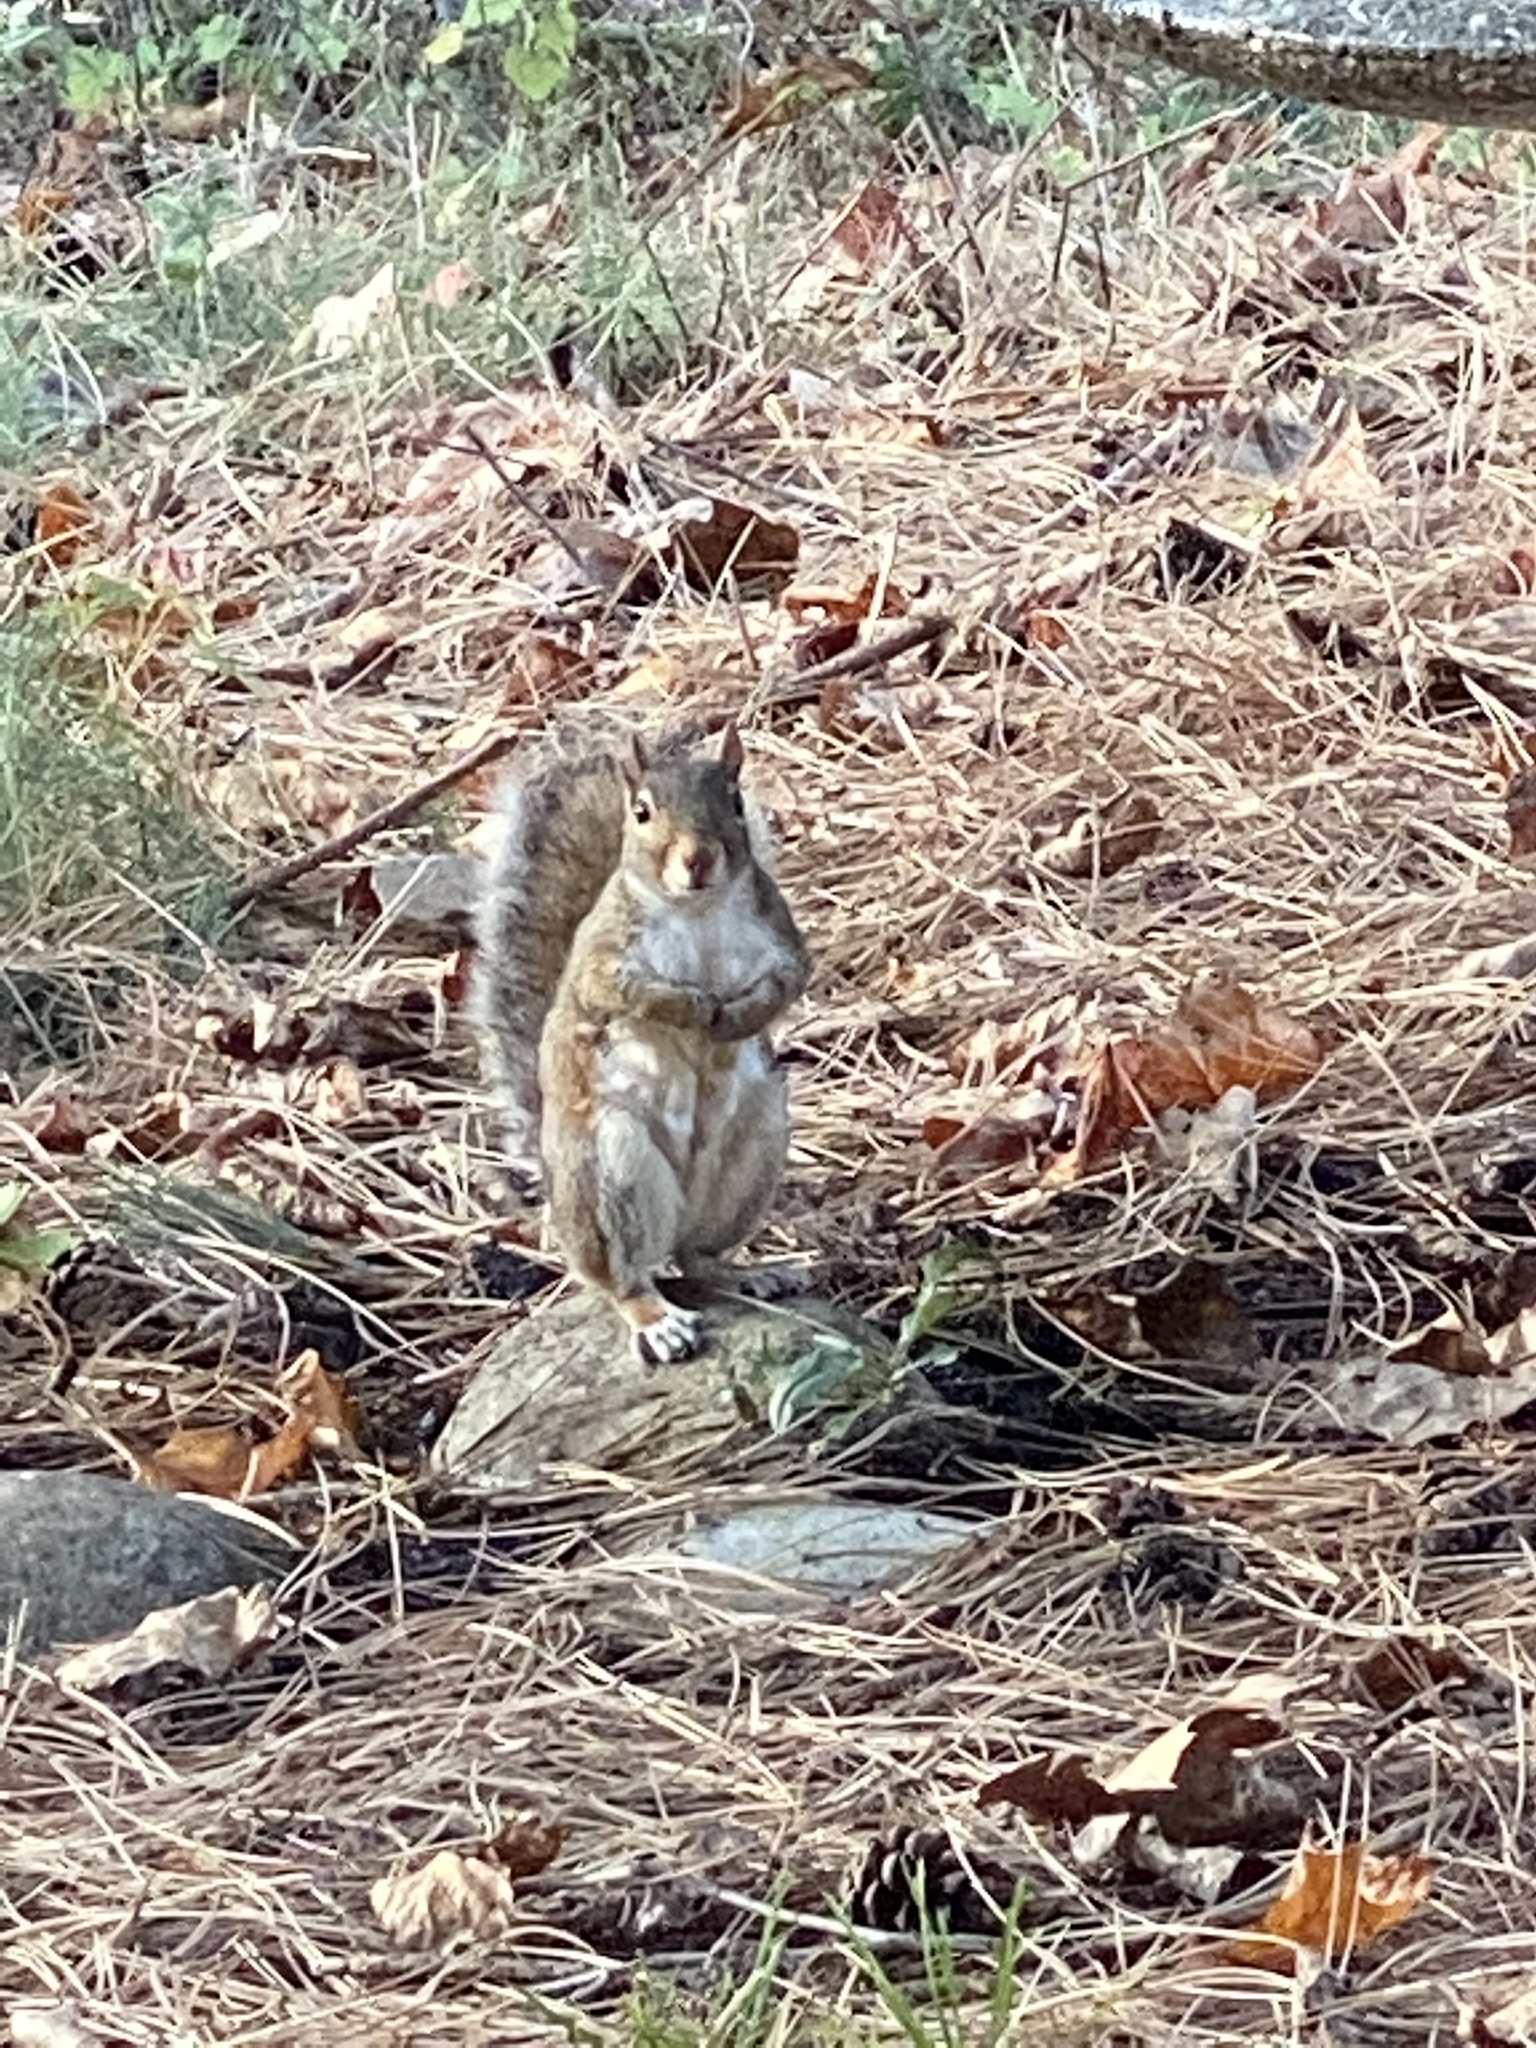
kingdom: Animalia
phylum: Chordata
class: Mammalia
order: Rodentia
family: Sciuridae
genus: Sciurus
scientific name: Sciurus carolinensis
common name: Eastern gray squirrel
